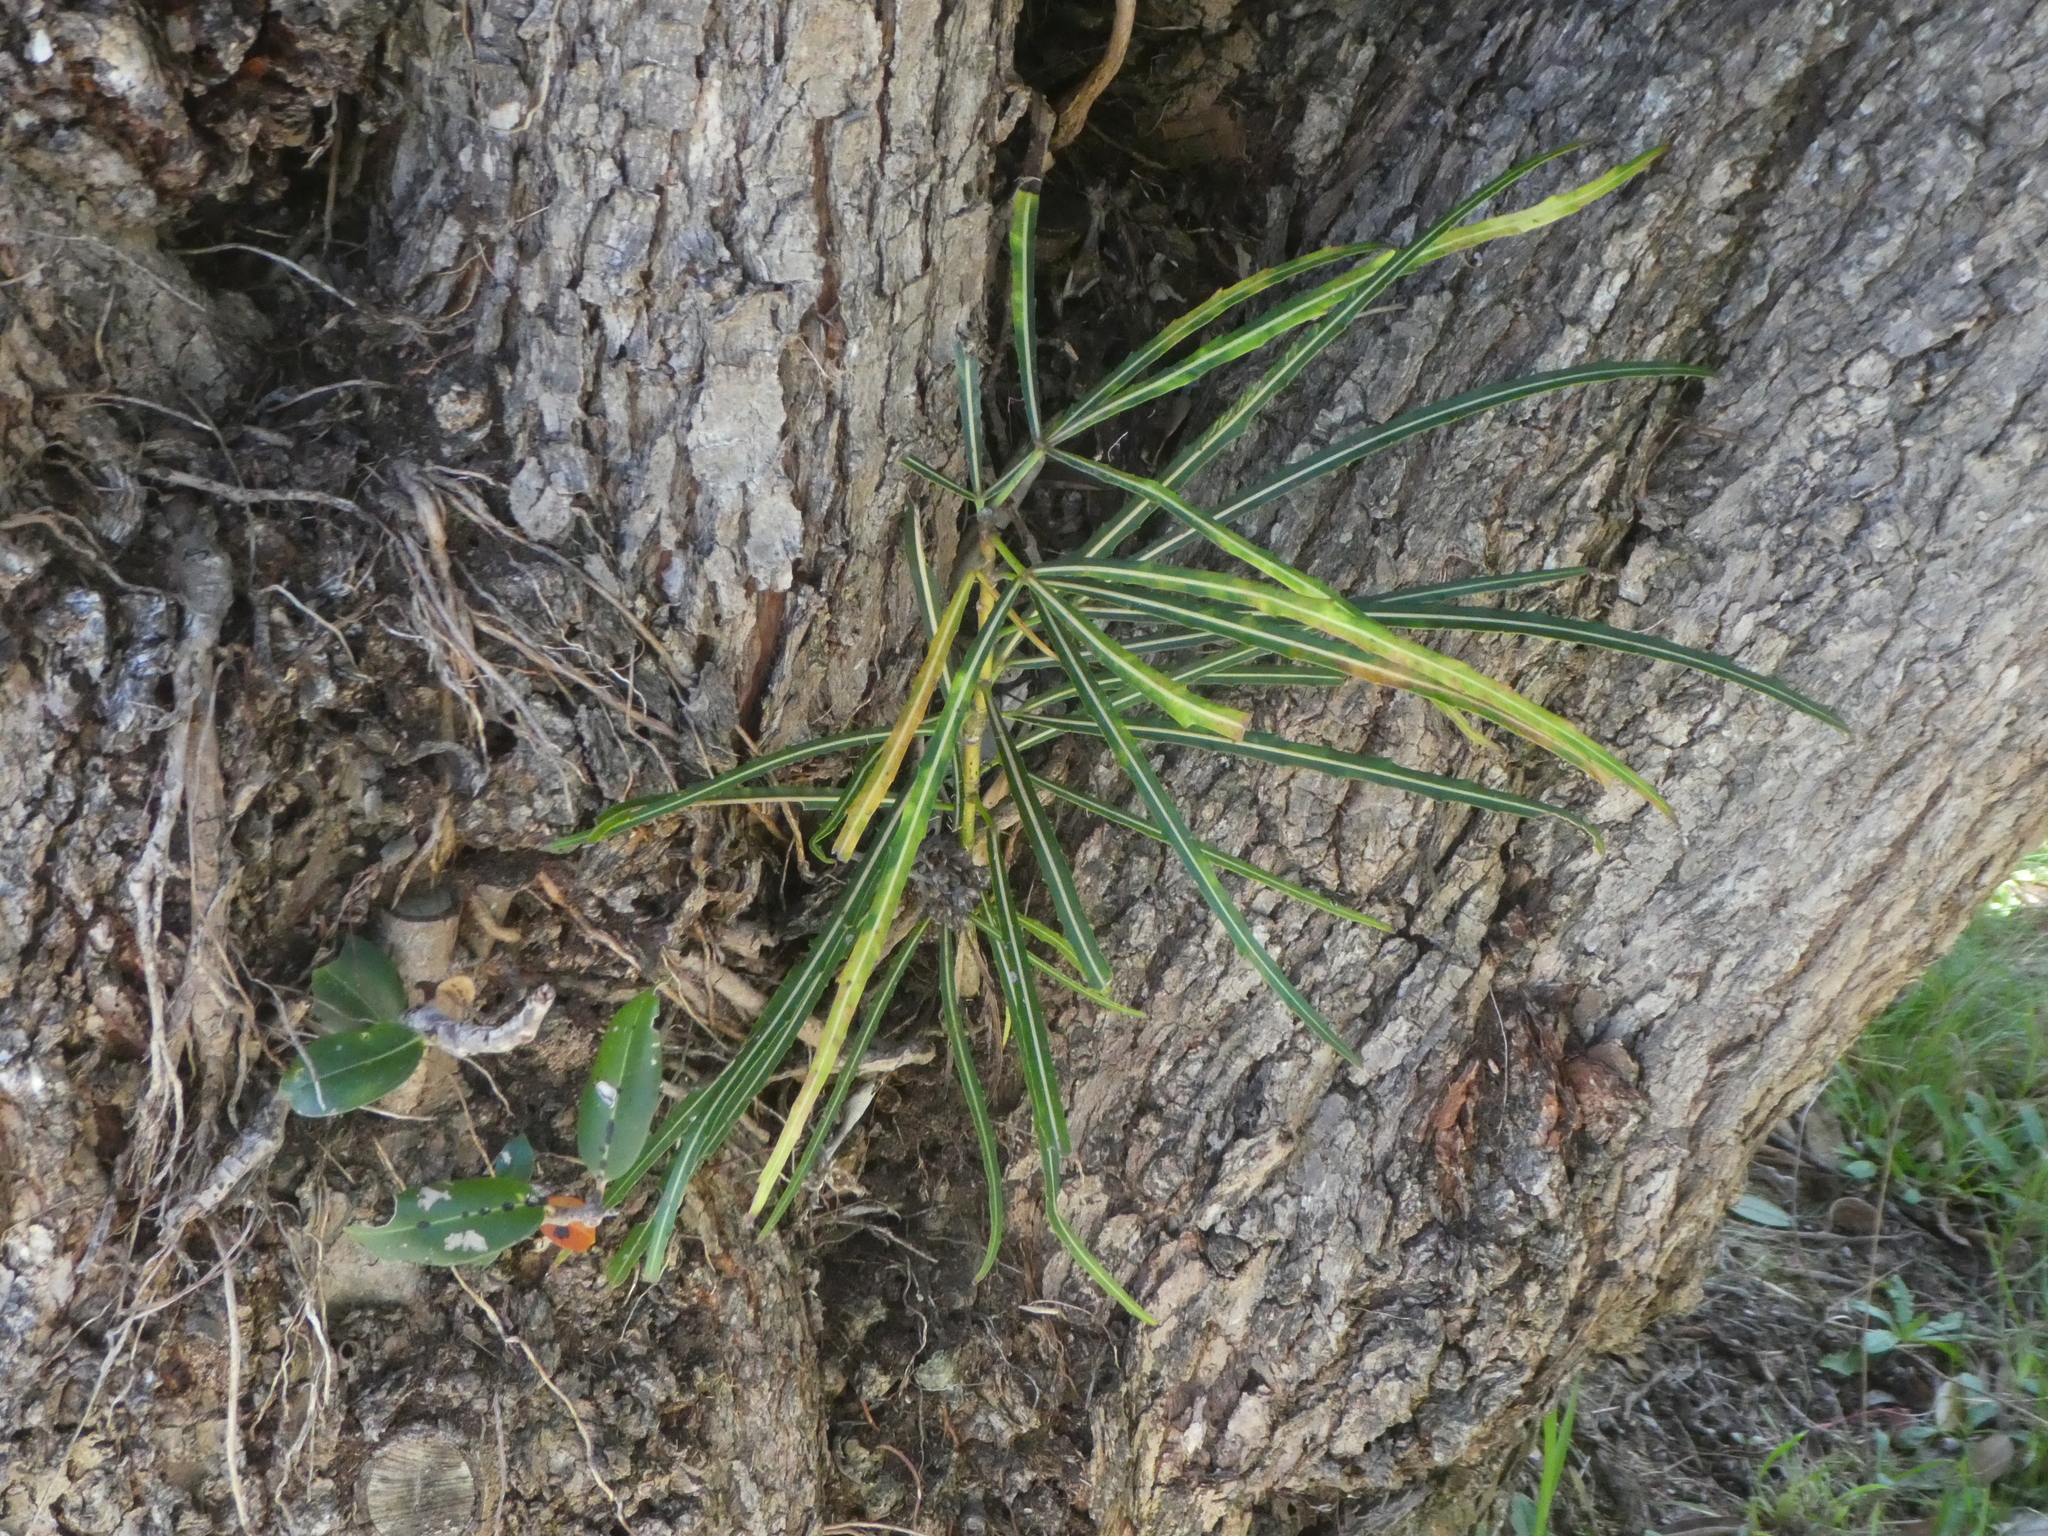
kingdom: Plantae
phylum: Tracheophyta
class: Magnoliopsida
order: Apiales
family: Araliaceae
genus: Pseudopanax
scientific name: Pseudopanax
